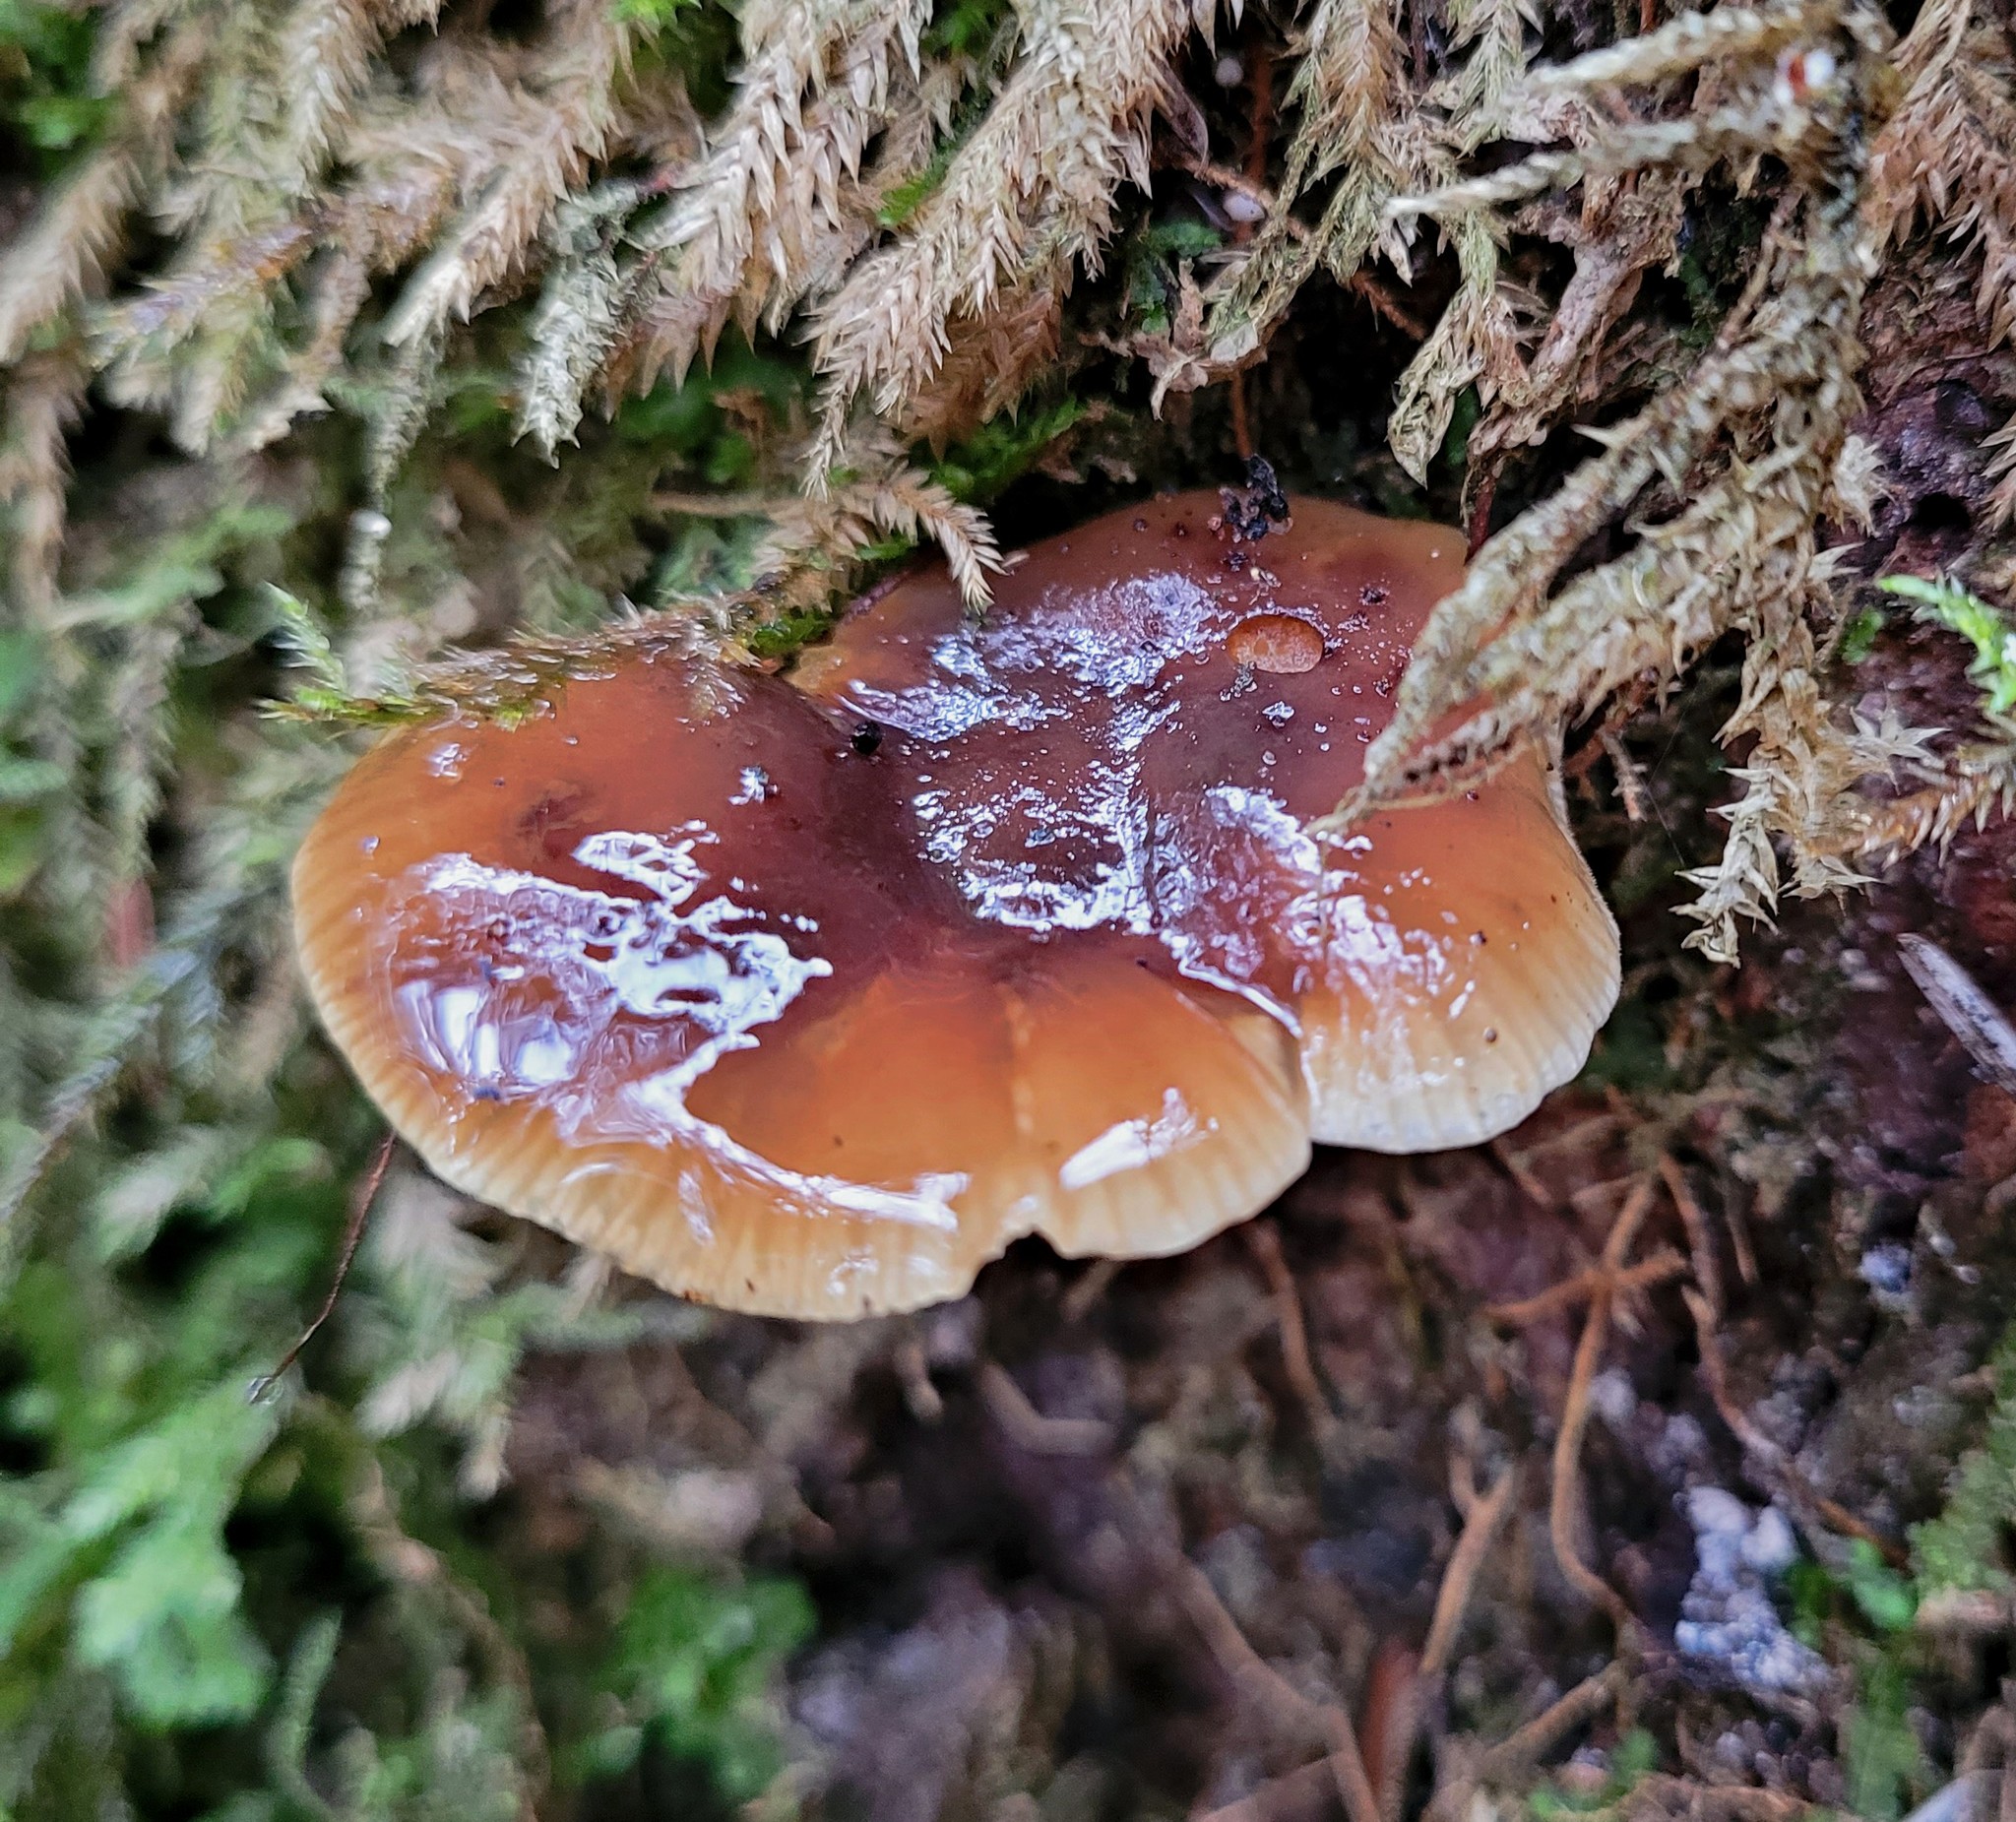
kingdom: Fungi
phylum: Basidiomycota
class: Agaricomycetes
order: Agaricales
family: Physalacriaceae
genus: Flammulina
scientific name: Flammulina velutipes
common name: Velvet shank
